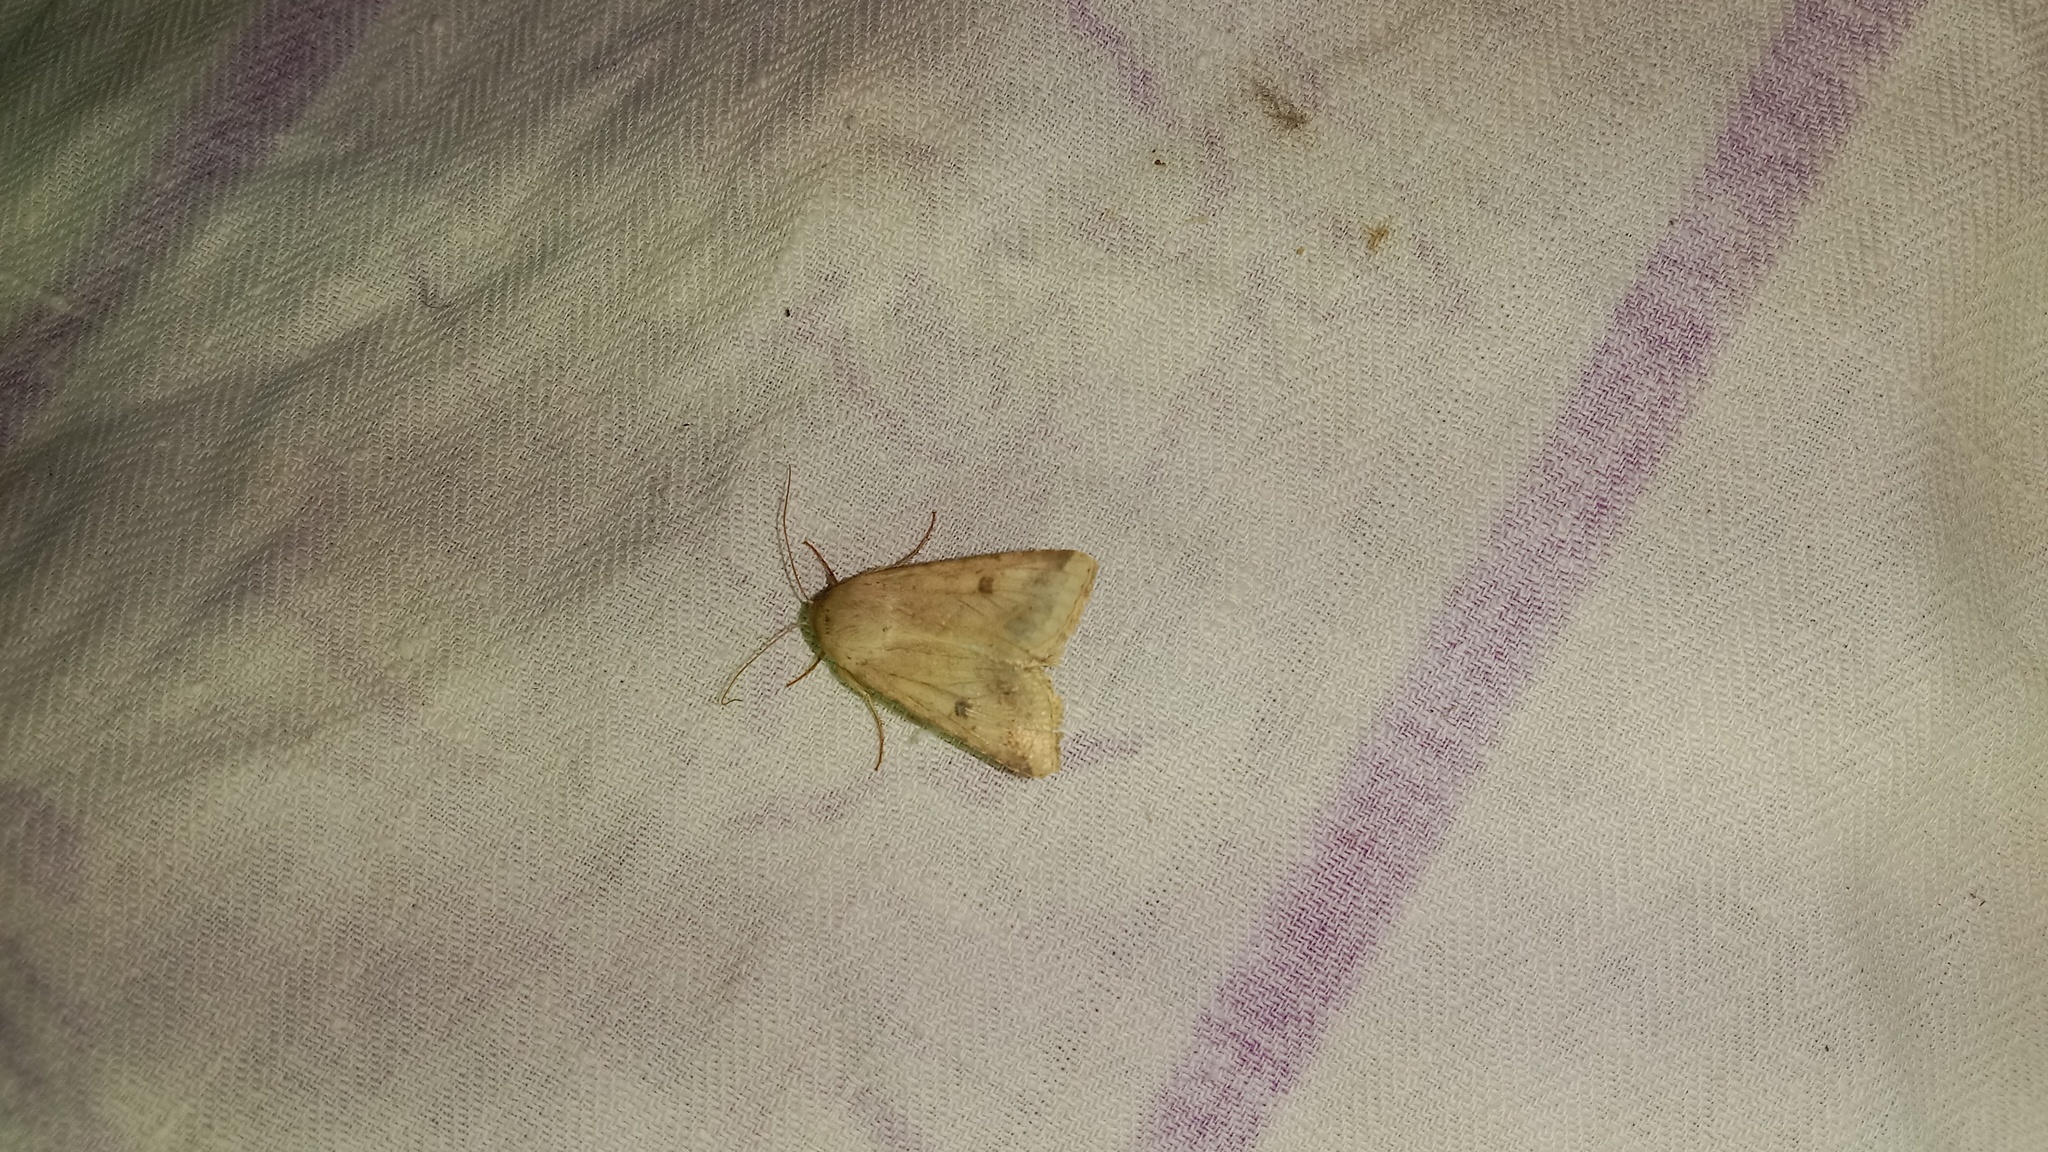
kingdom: Animalia
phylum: Arthropoda
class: Insecta
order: Lepidoptera
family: Noctuidae
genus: Helicoverpa
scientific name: Helicoverpa armigera
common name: Cotton bollworm
